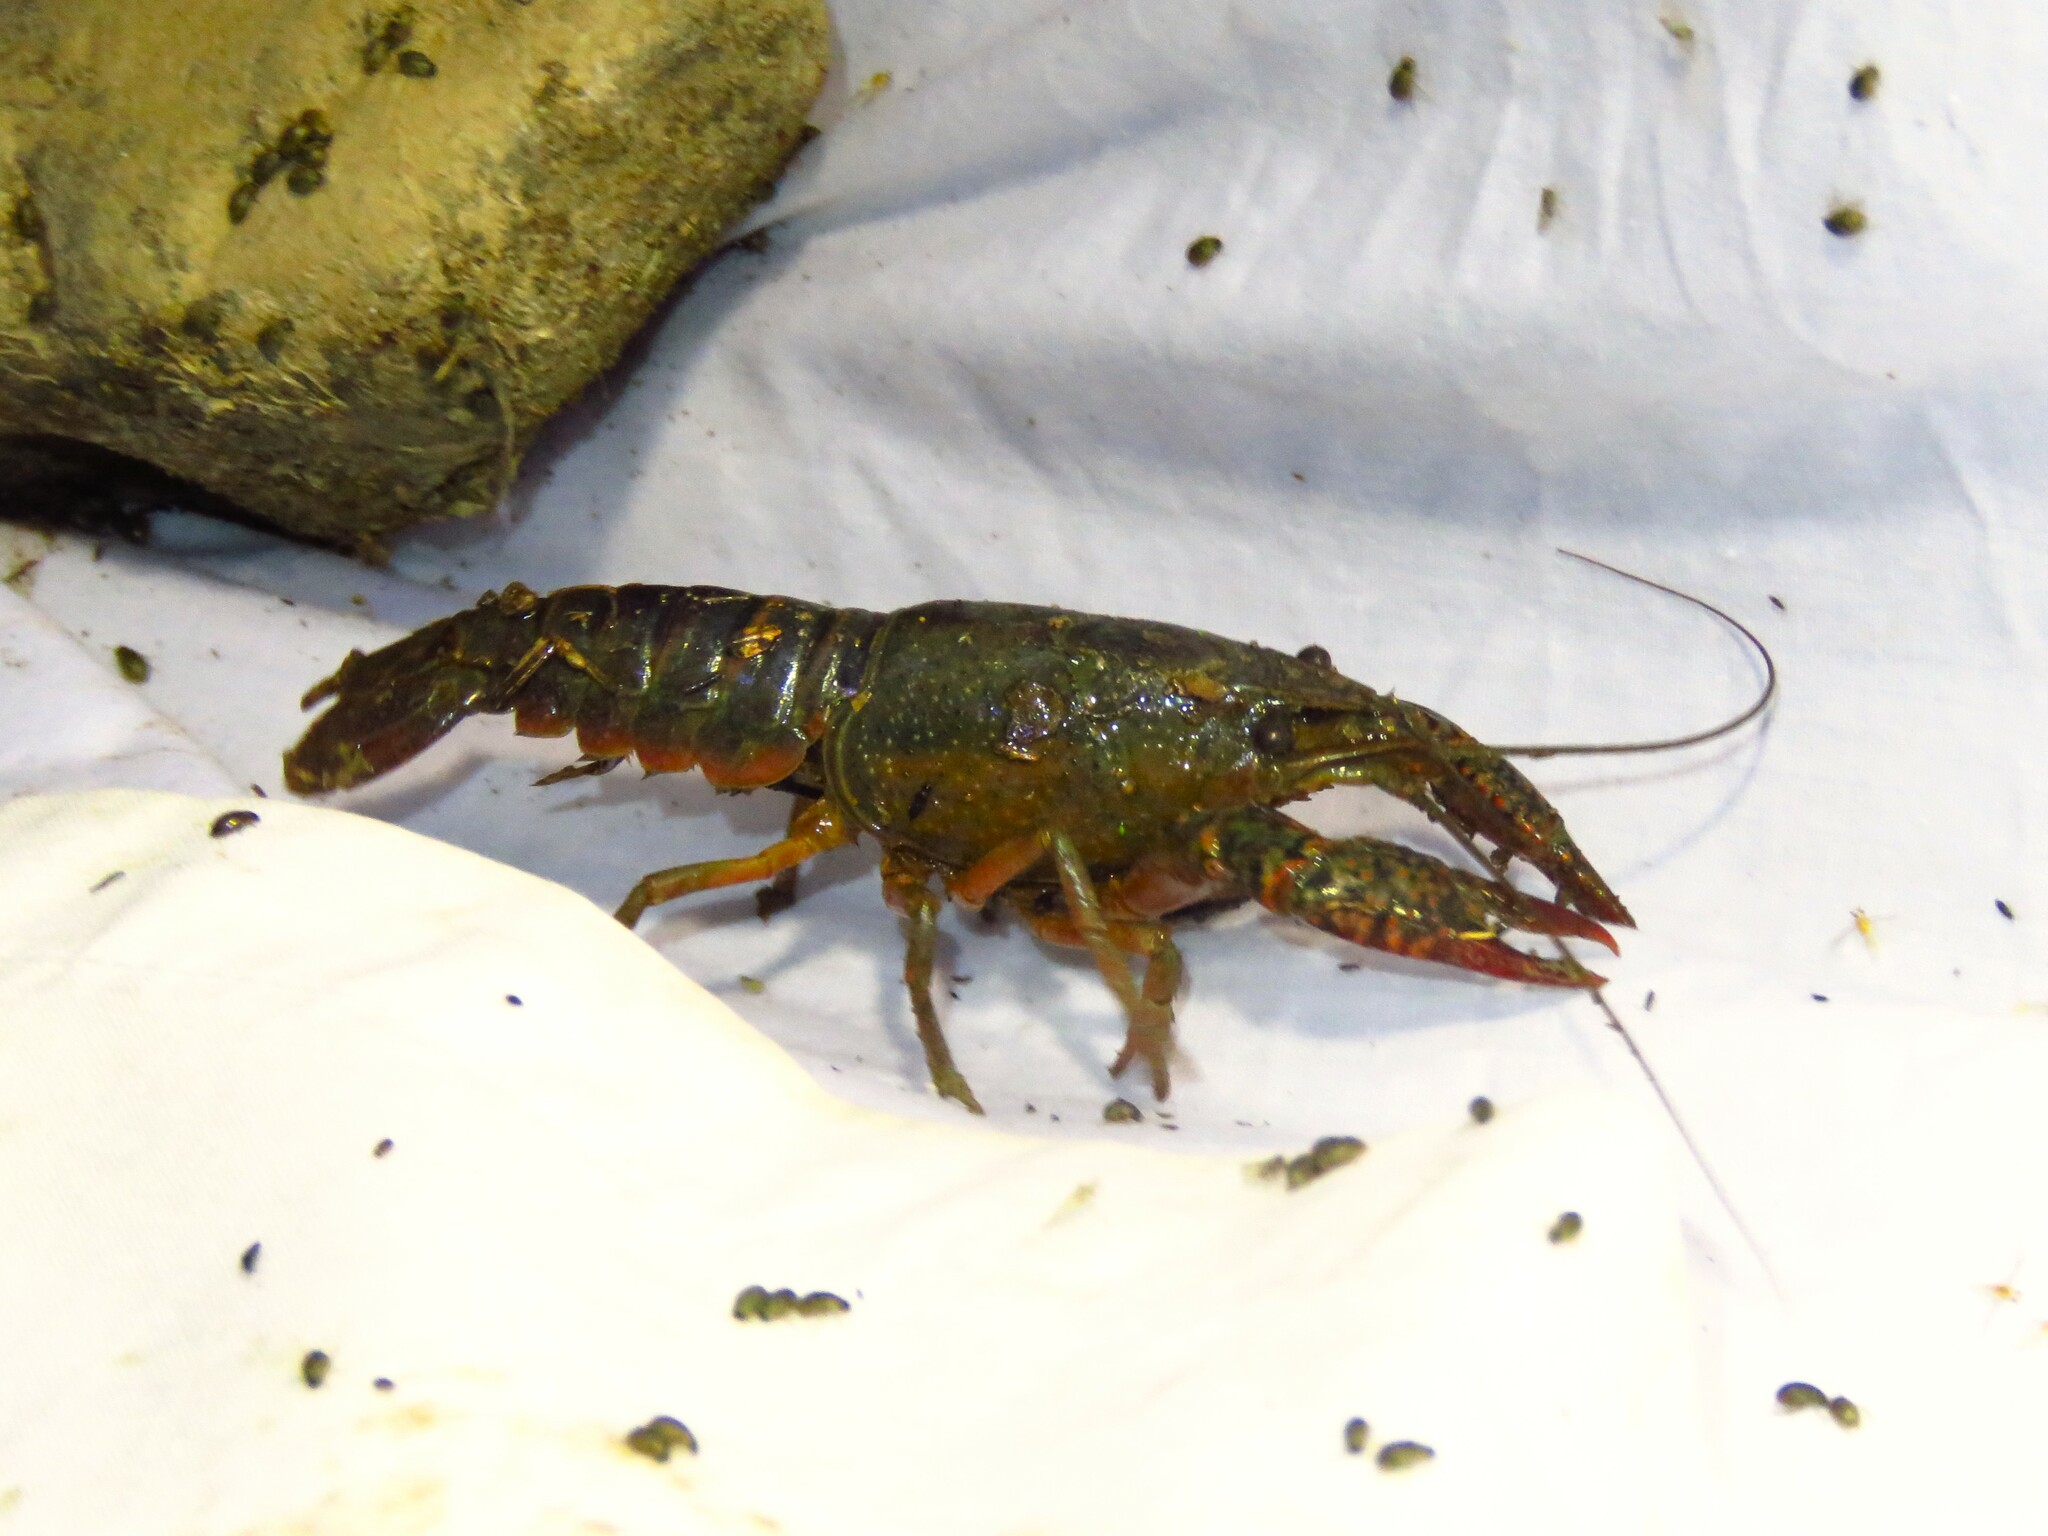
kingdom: Animalia
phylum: Arthropoda
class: Malacostraca
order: Decapoda
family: Cambaridae
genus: Procambarus
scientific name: Procambarus clarkii
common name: Red swamp crayfish
